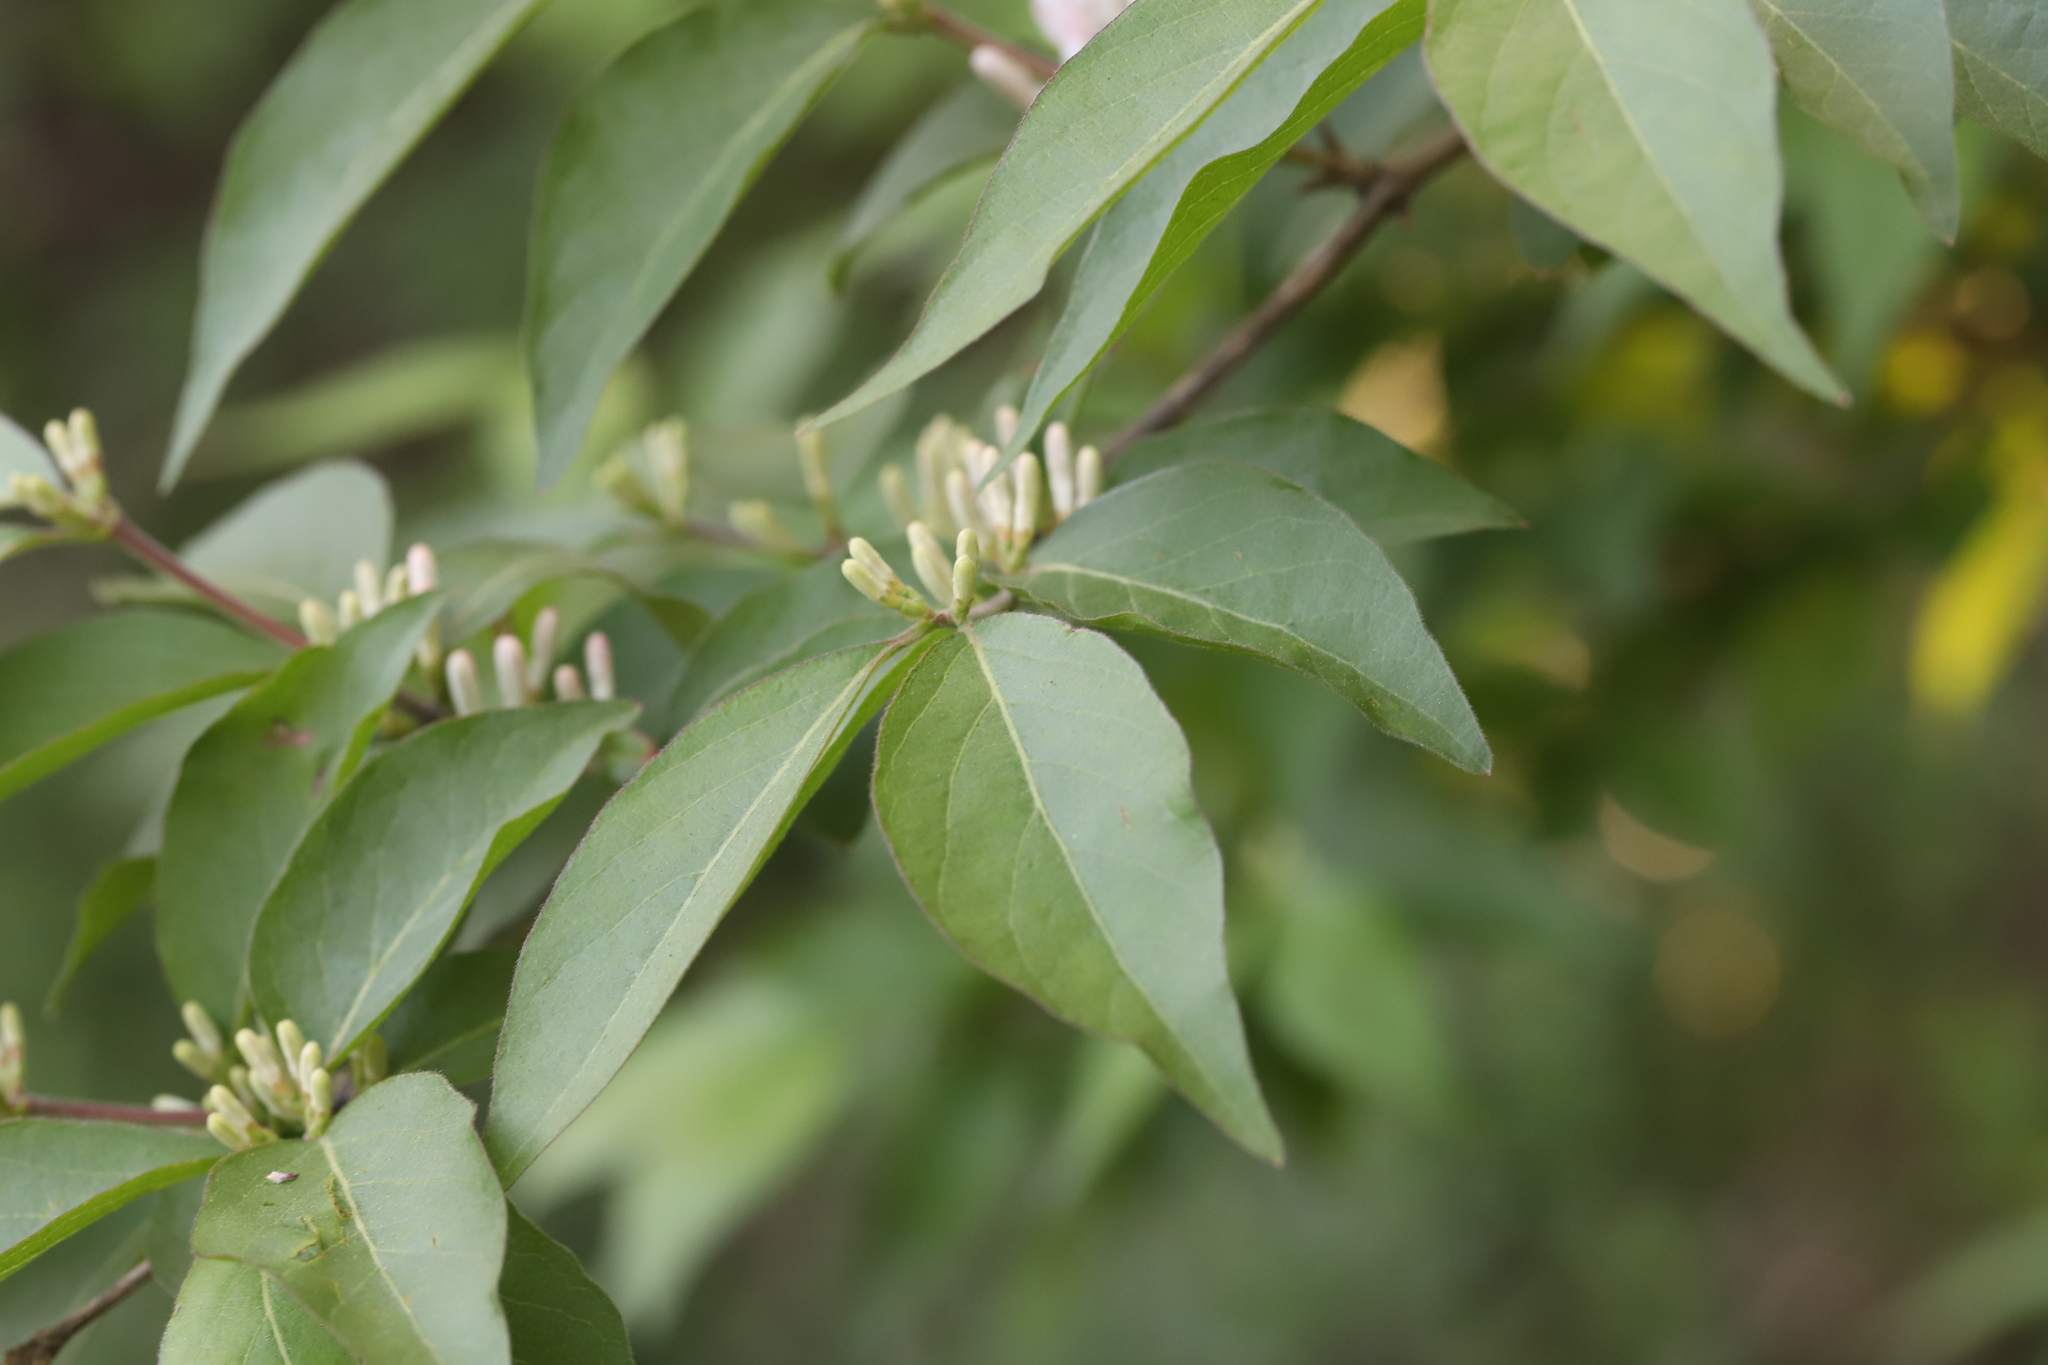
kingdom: Plantae
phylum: Tracheophyta
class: Magnoliopsida
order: Dipsacales
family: Caprifoliaceae
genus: Lonicera
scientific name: Lonicera maackii
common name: Amur honeysuckle
